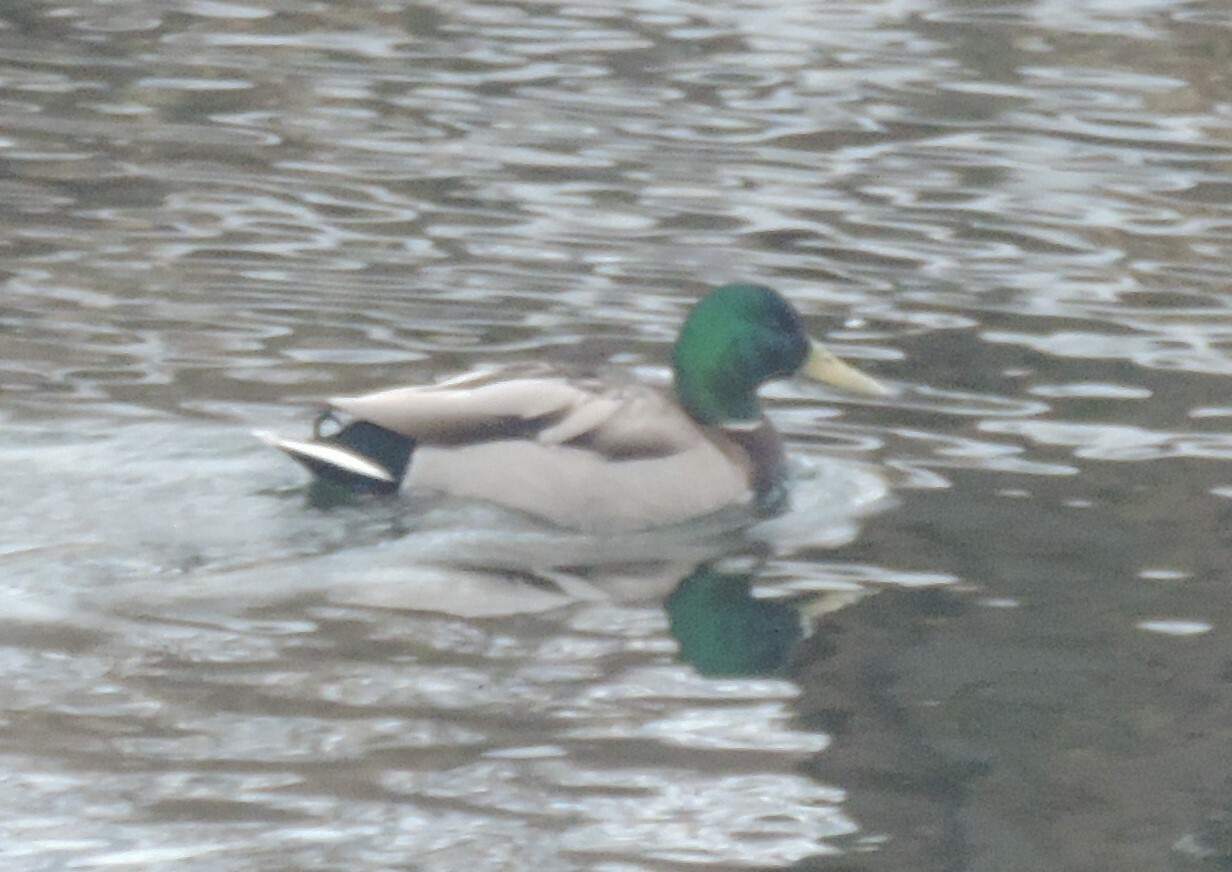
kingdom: Animalia
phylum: Chordata
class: Aves
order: Anseriformes
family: Anatidae
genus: Anas
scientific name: Anas platyrhynchos
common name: Mallard
